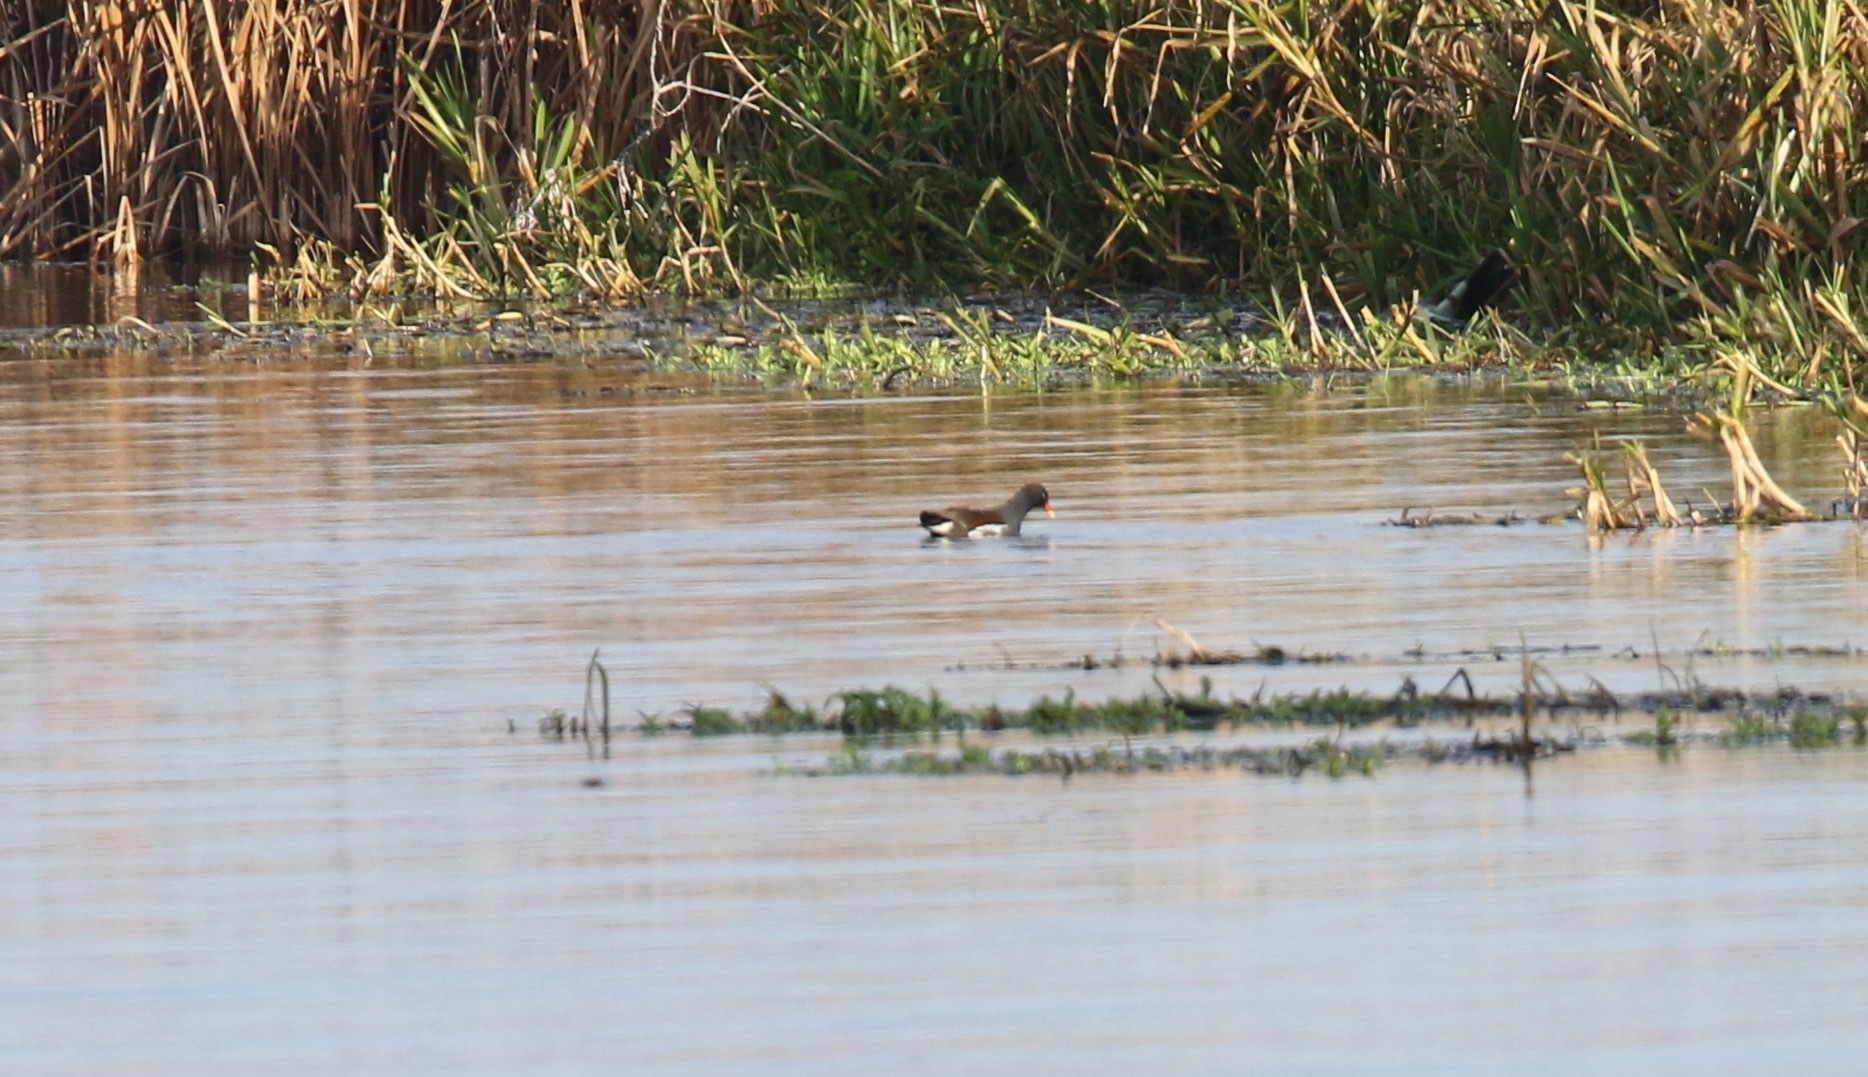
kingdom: Animalia
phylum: Chordata
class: Aves
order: Gruiformes
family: Rallidae
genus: Gallinula
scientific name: Gallinula chloropus
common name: Common moorhen
